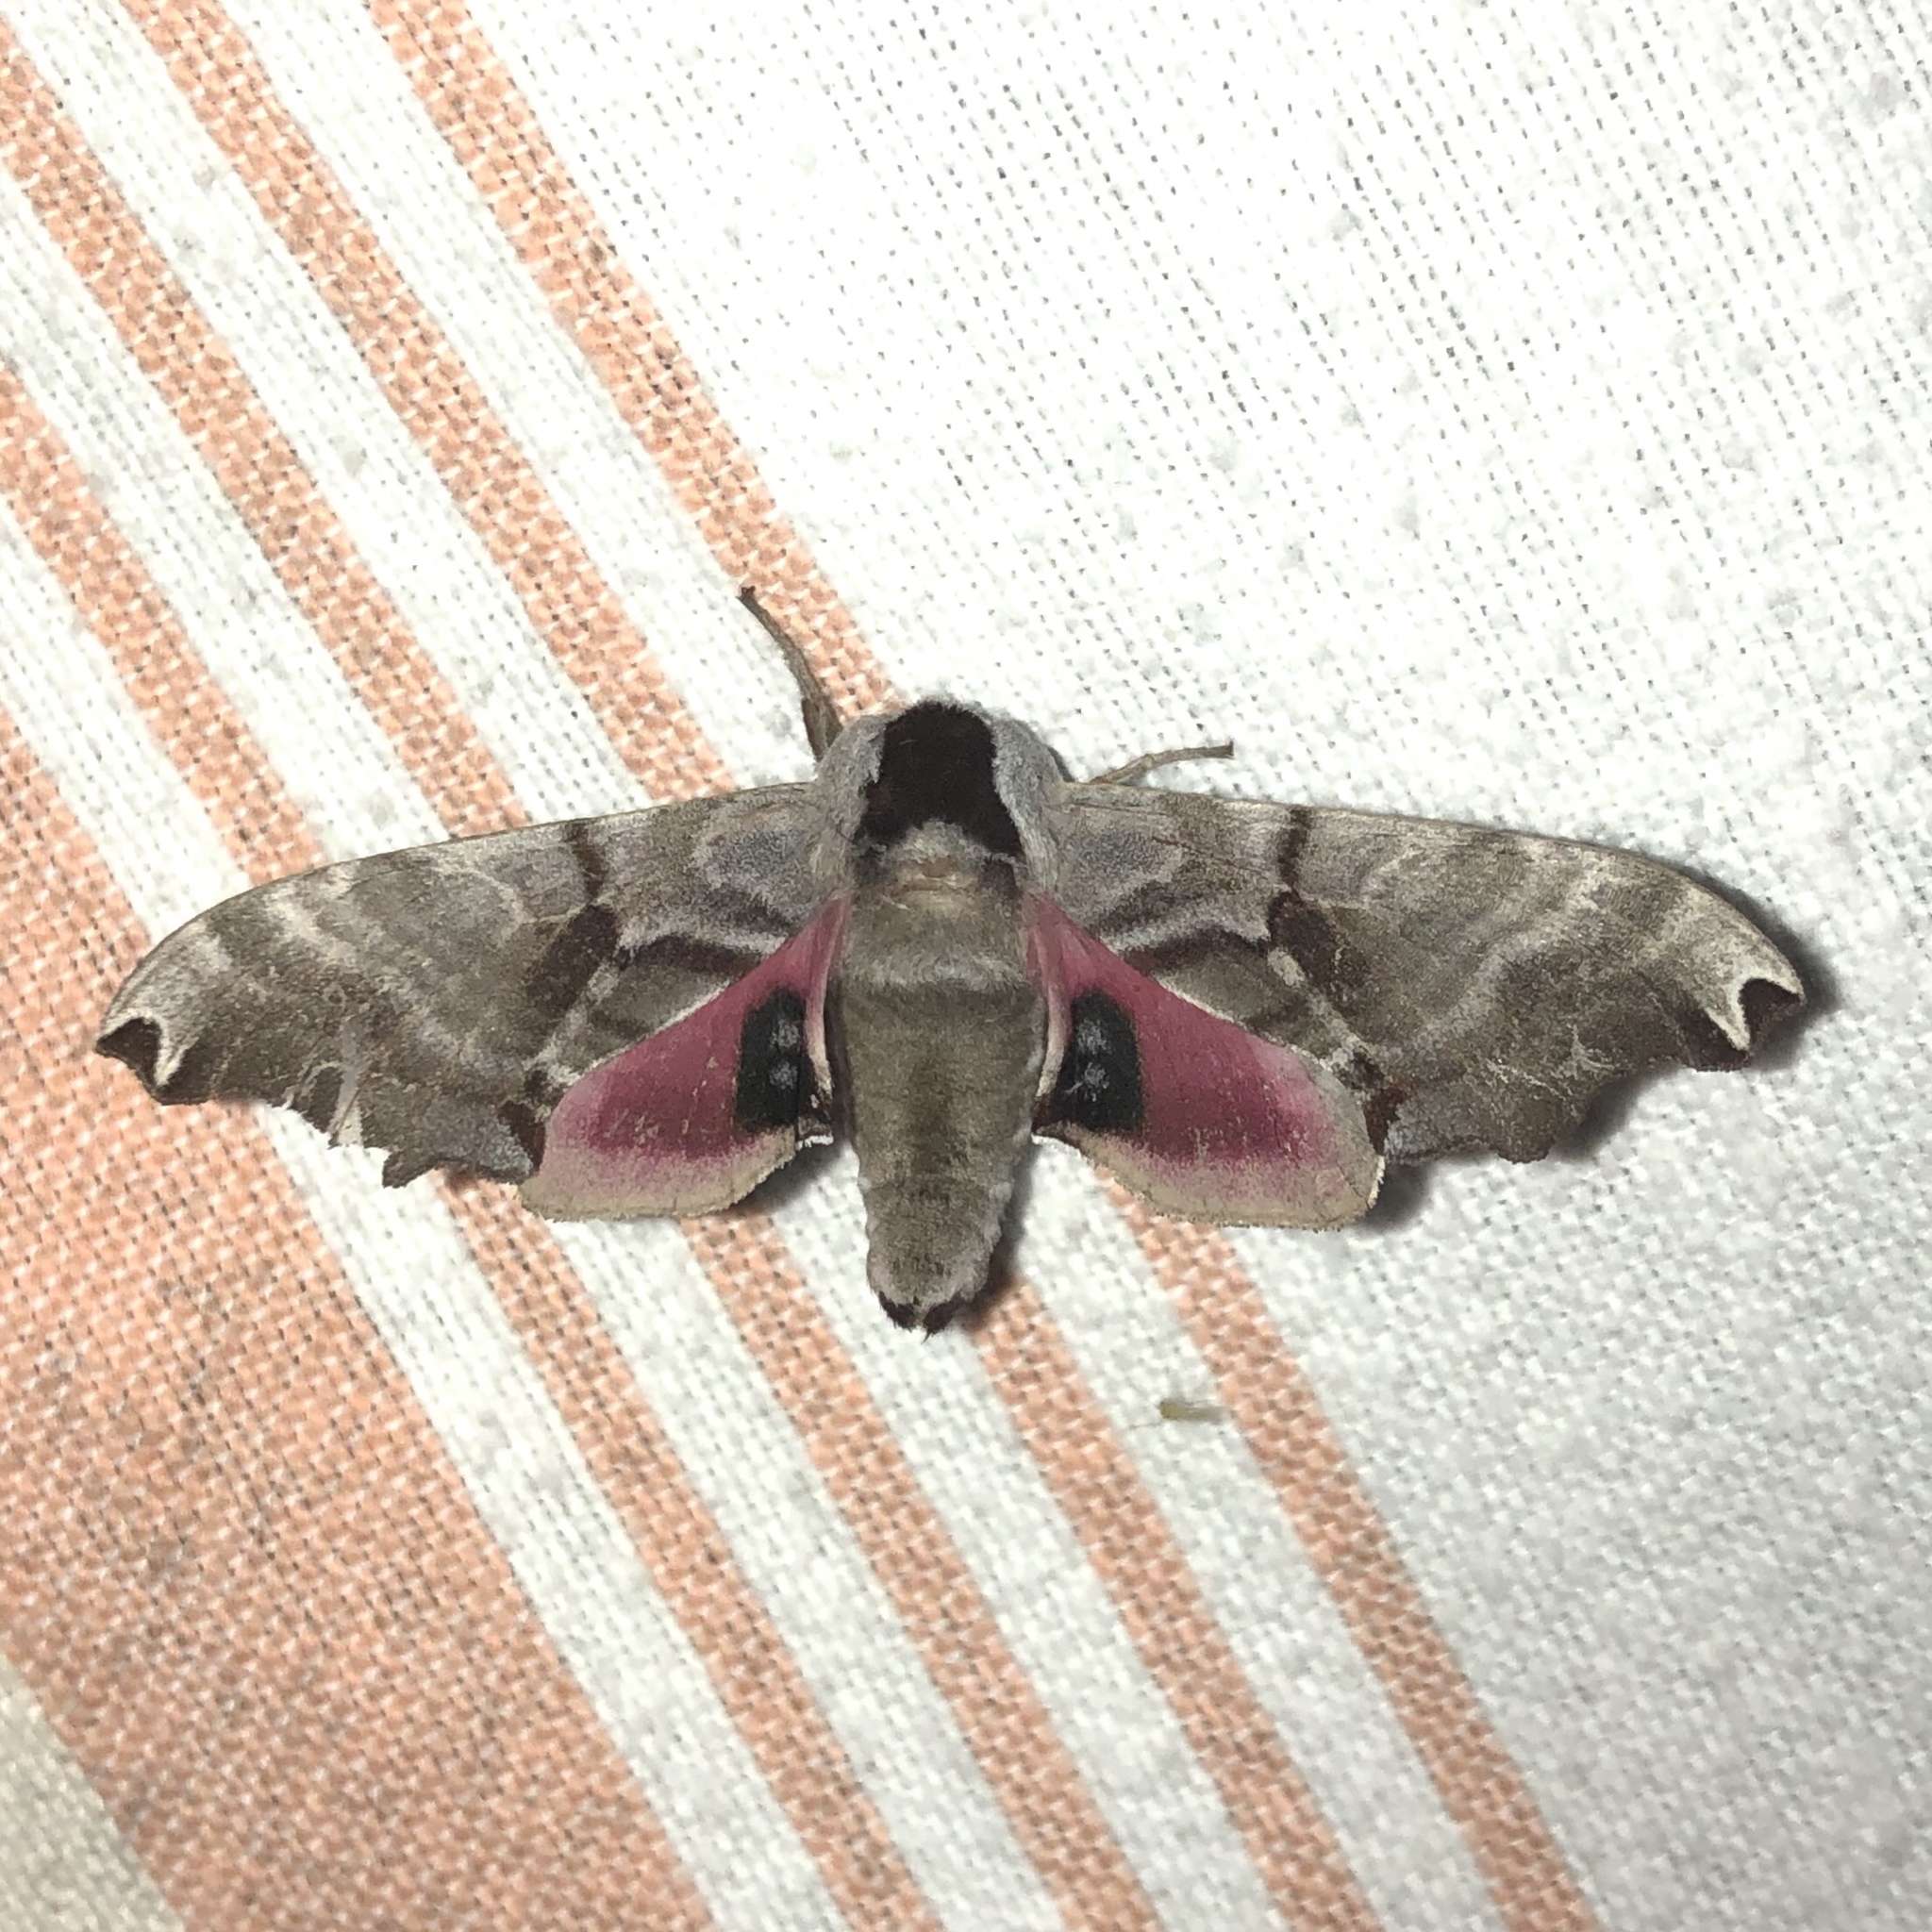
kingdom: Animalia
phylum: Arthropoda
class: Insecta
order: Lepidoptera
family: Sphingidae
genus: Smerinthus
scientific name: Smerinthus jamaicensis
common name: Twin spotted sphinx
